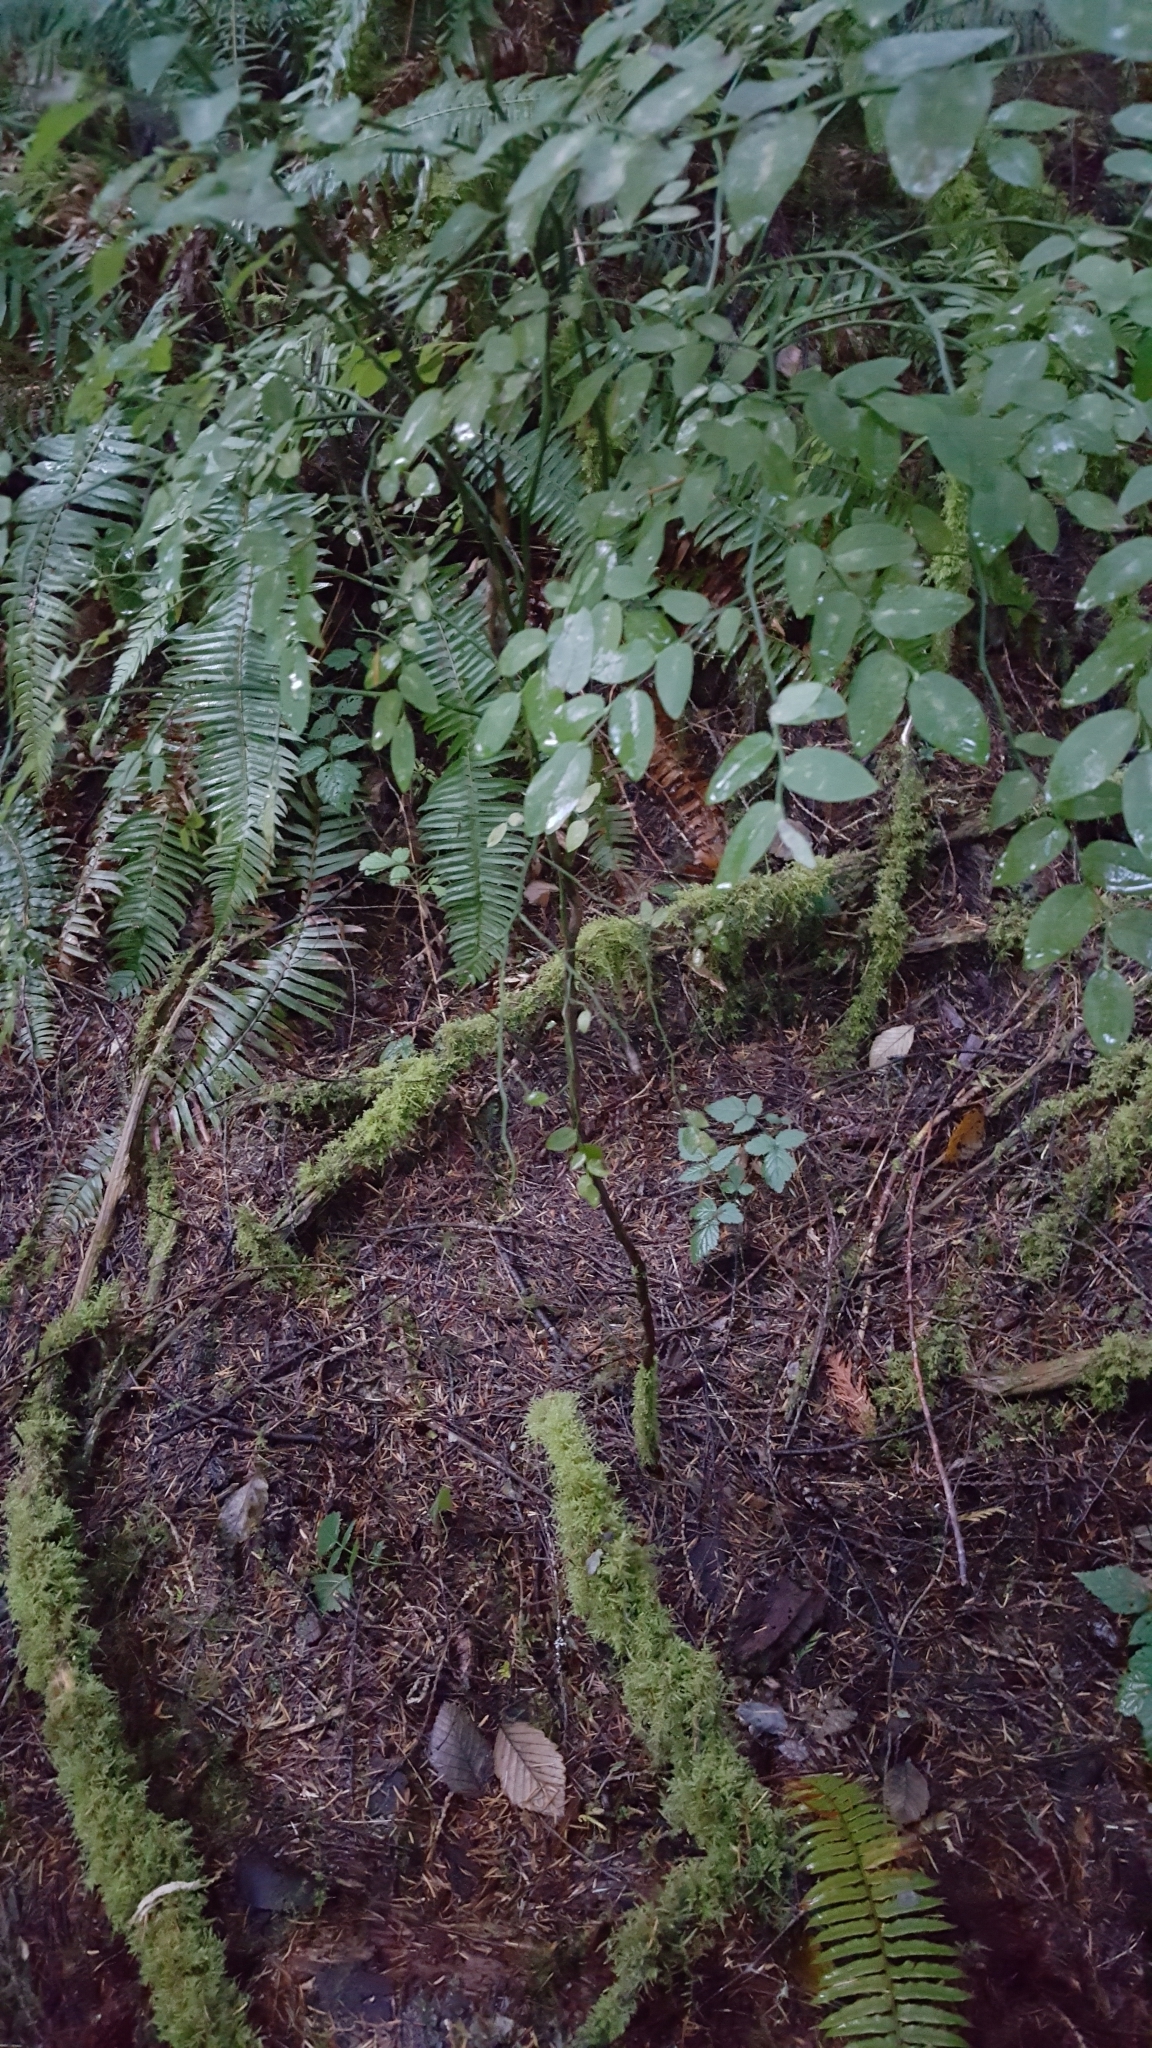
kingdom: Plantae
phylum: Tracheophyta
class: Magnoliopsida
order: Ericales
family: Ericaceae
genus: Vaccinium
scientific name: Vaccinium parvifolium
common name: Red-huckleberry
